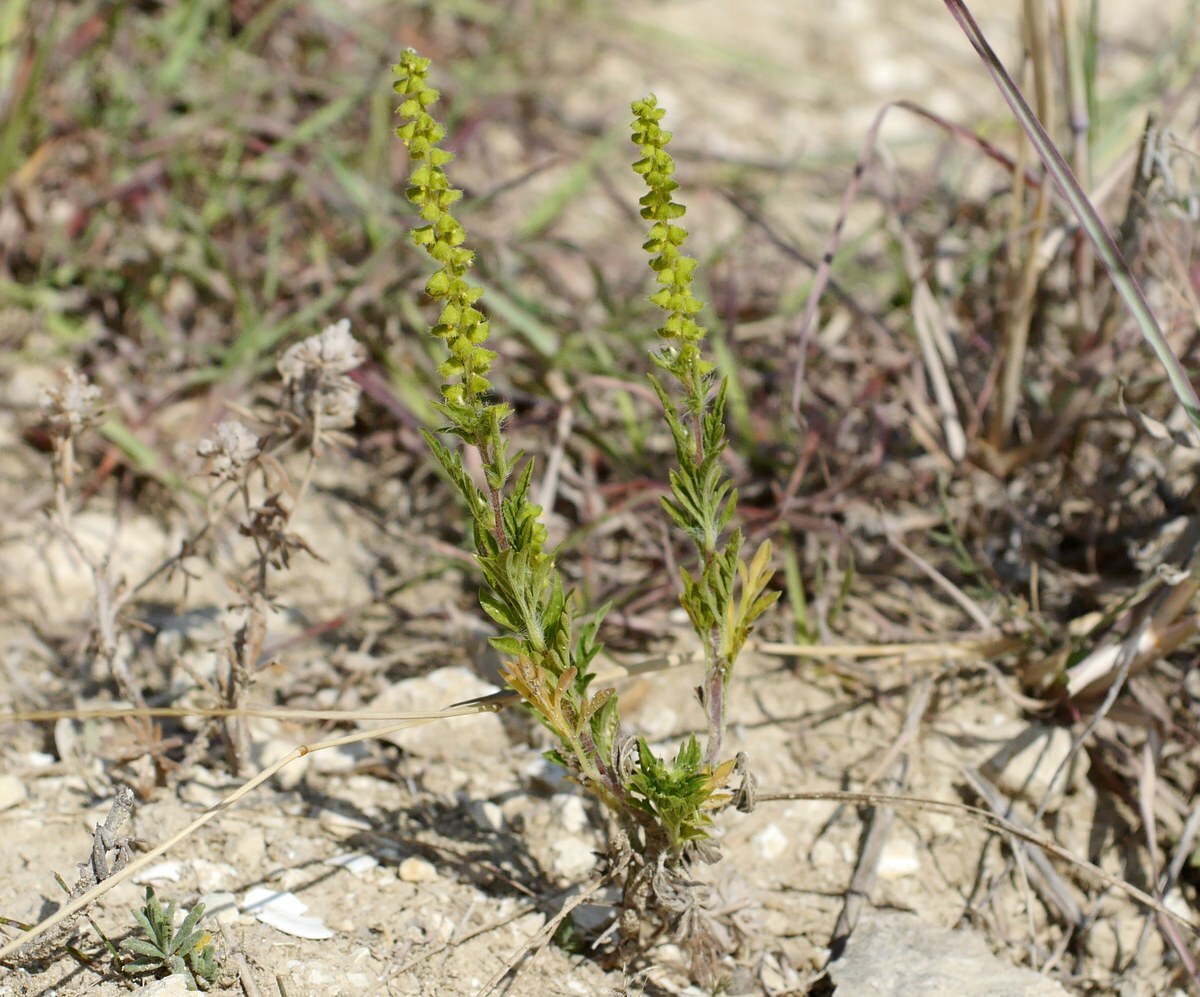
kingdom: Plantae
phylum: Tracheophyta
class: Magnoliopsida
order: Asterales
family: Asteraceae
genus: Ambrosia
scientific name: Ambrosia artemisiifolia
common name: Annual ragweed
